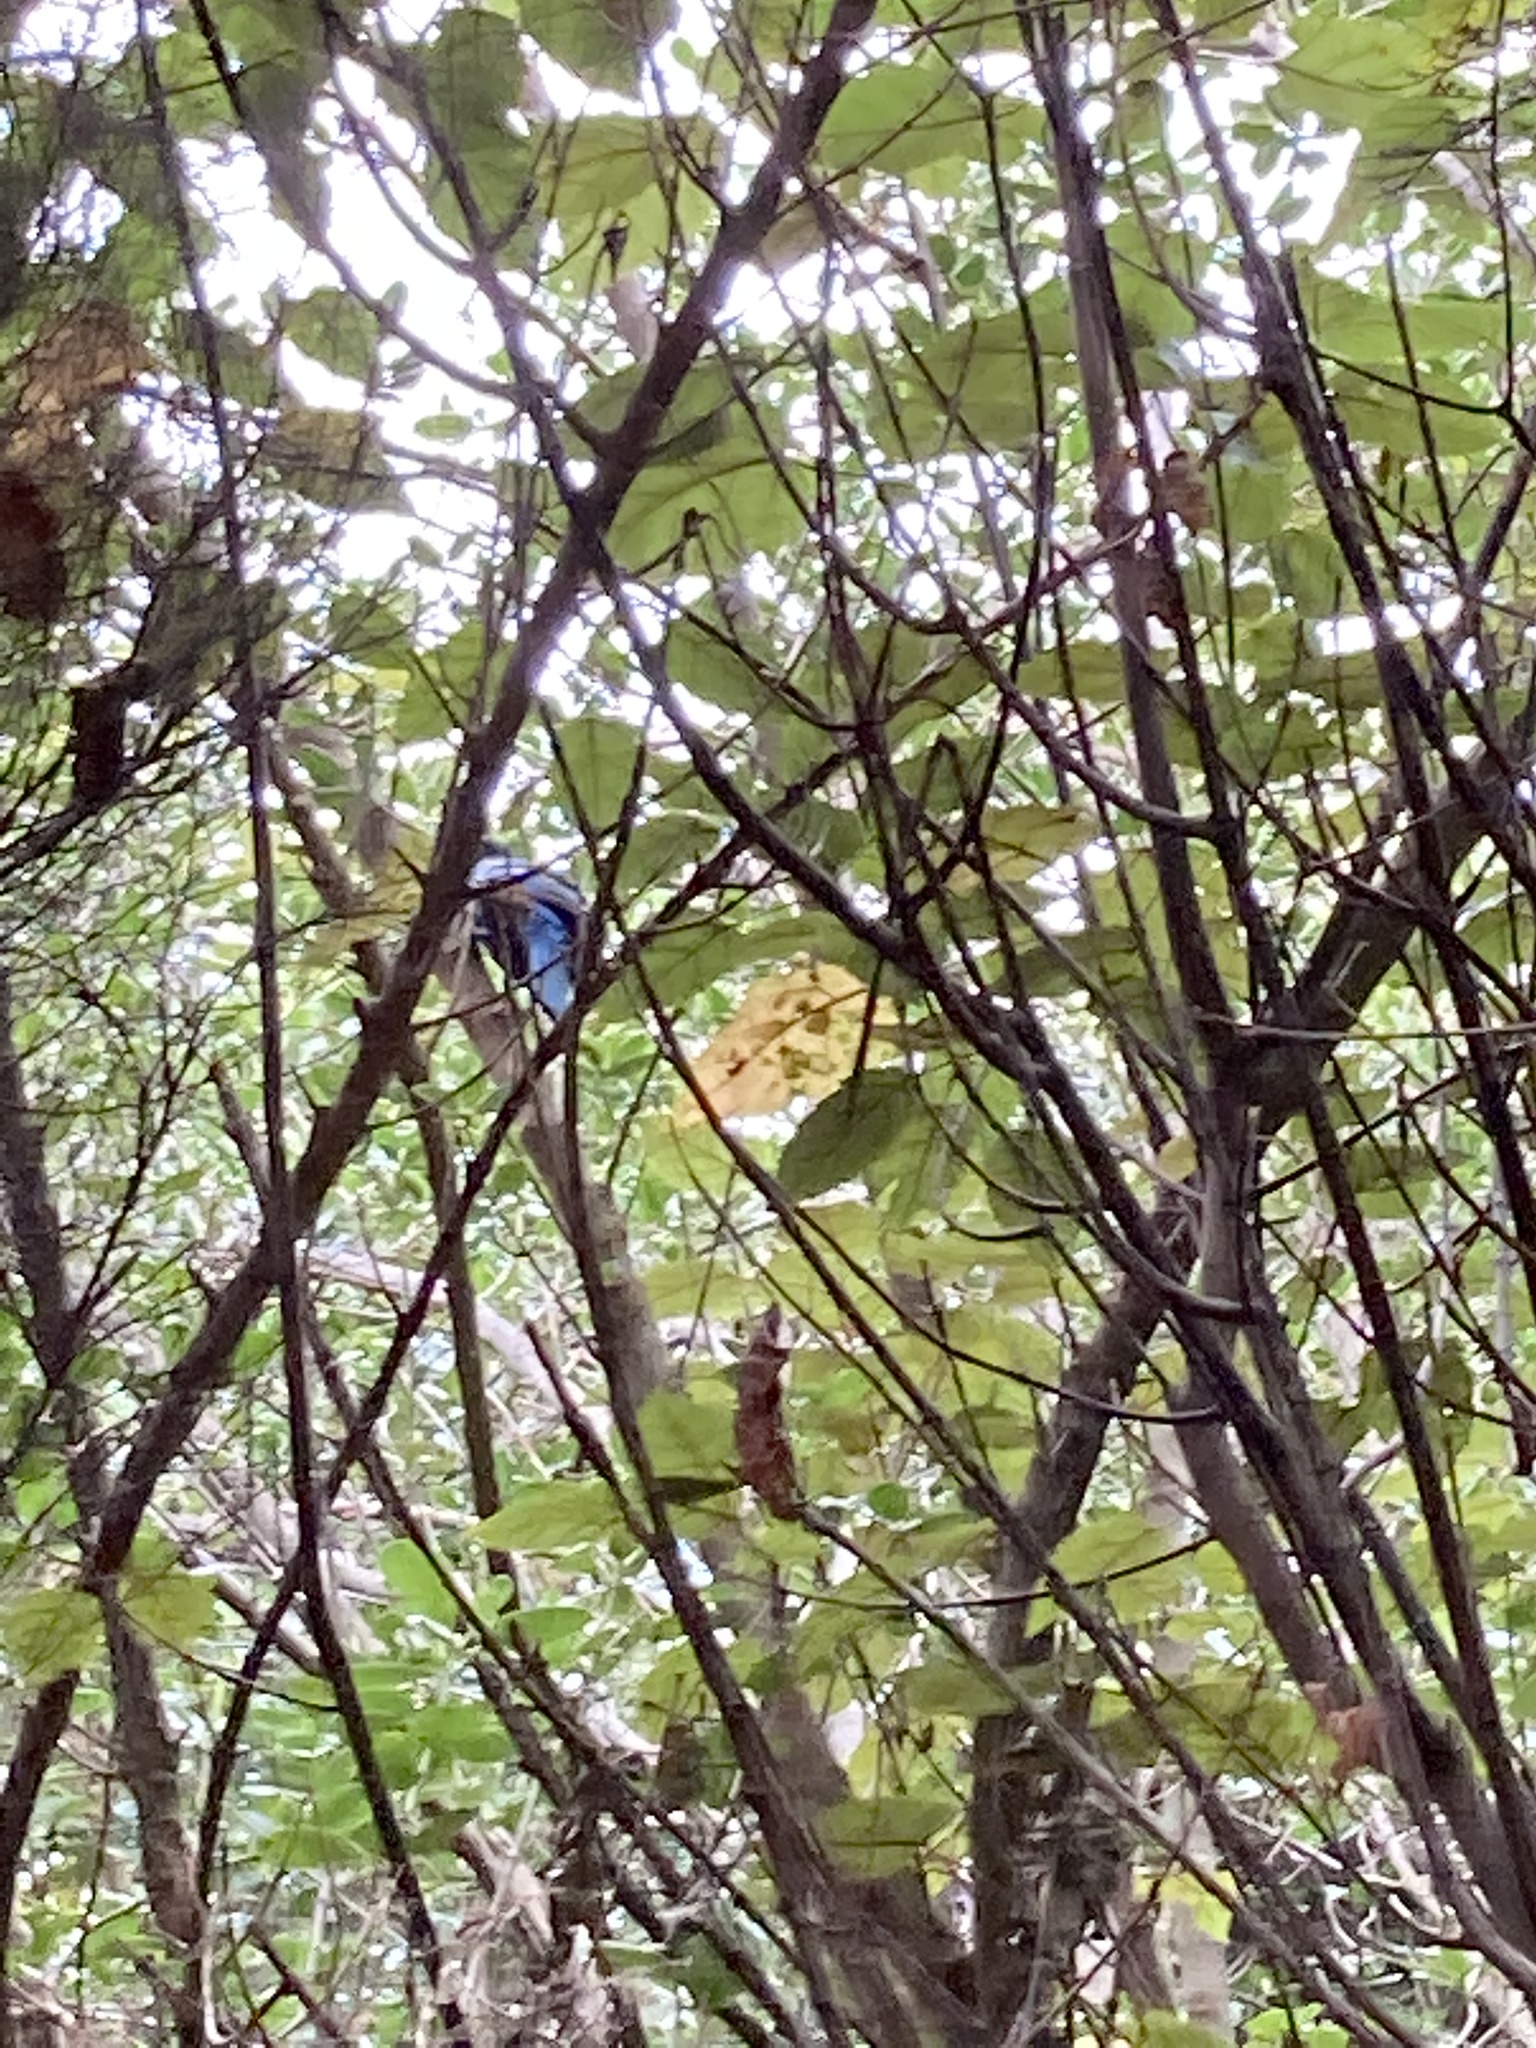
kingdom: Animalia
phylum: Chordata
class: Aves
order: Passeriformes
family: Meliphagidae
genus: Prosthemadera
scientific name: Prosthemadera novaeseelandiae
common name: Tui
